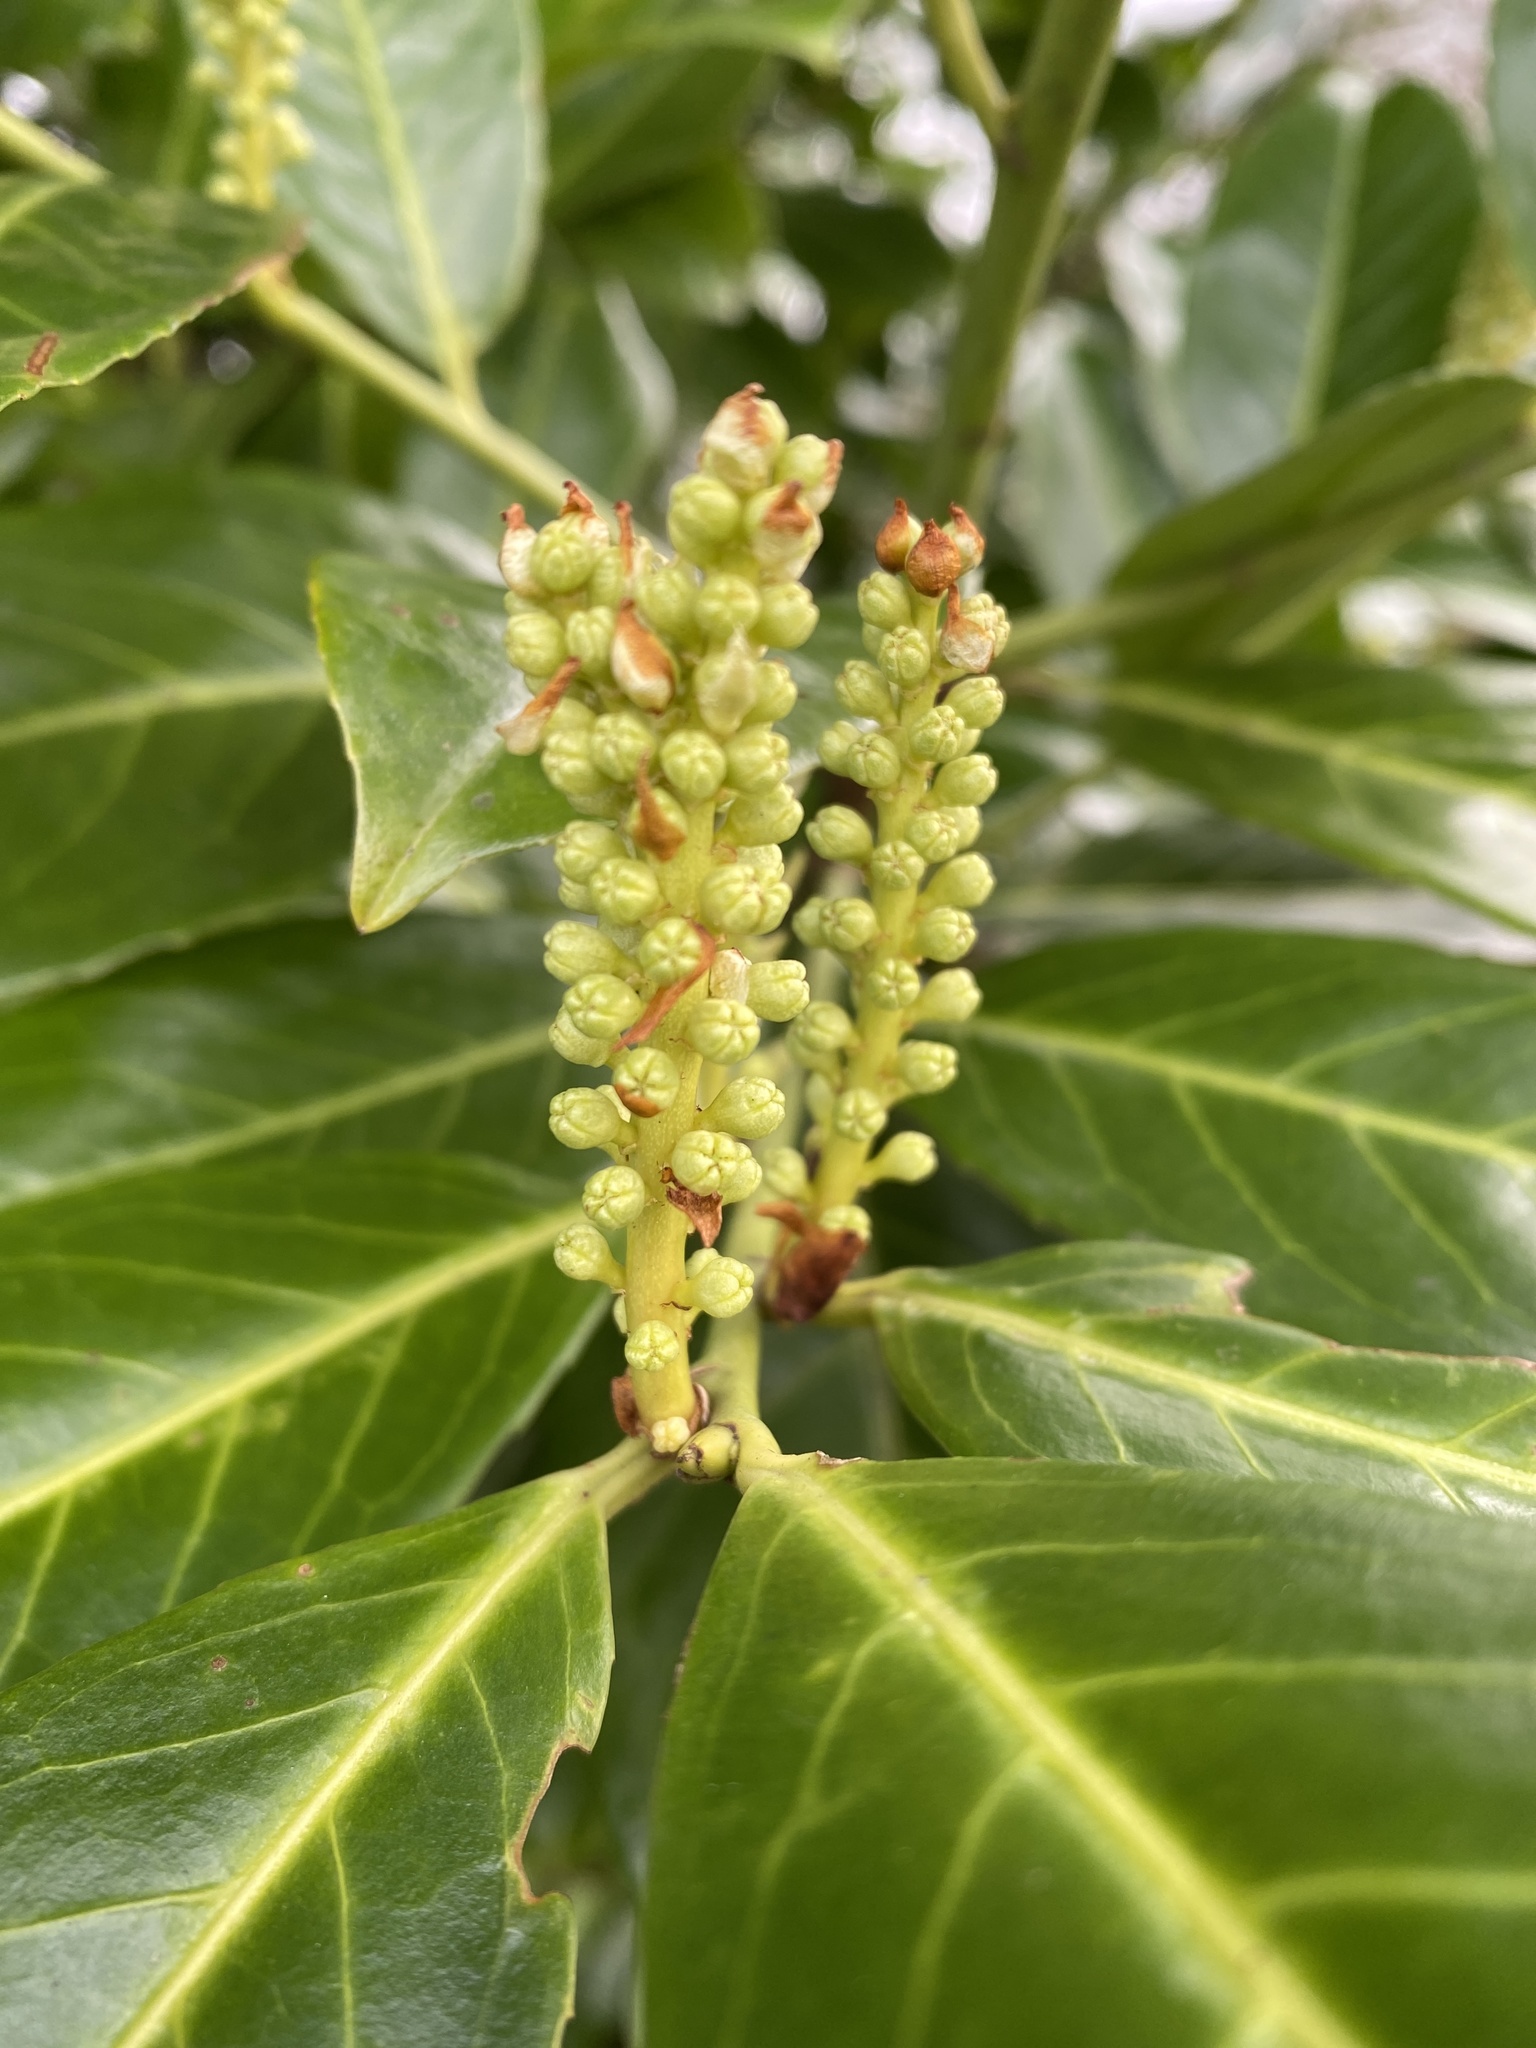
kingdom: Plantae
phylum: Tracheophyta
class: Magnoliopsida
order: Rosales
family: Rosaceae
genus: Prunus
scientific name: Prunus laurocerasus
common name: Cherry laurel
